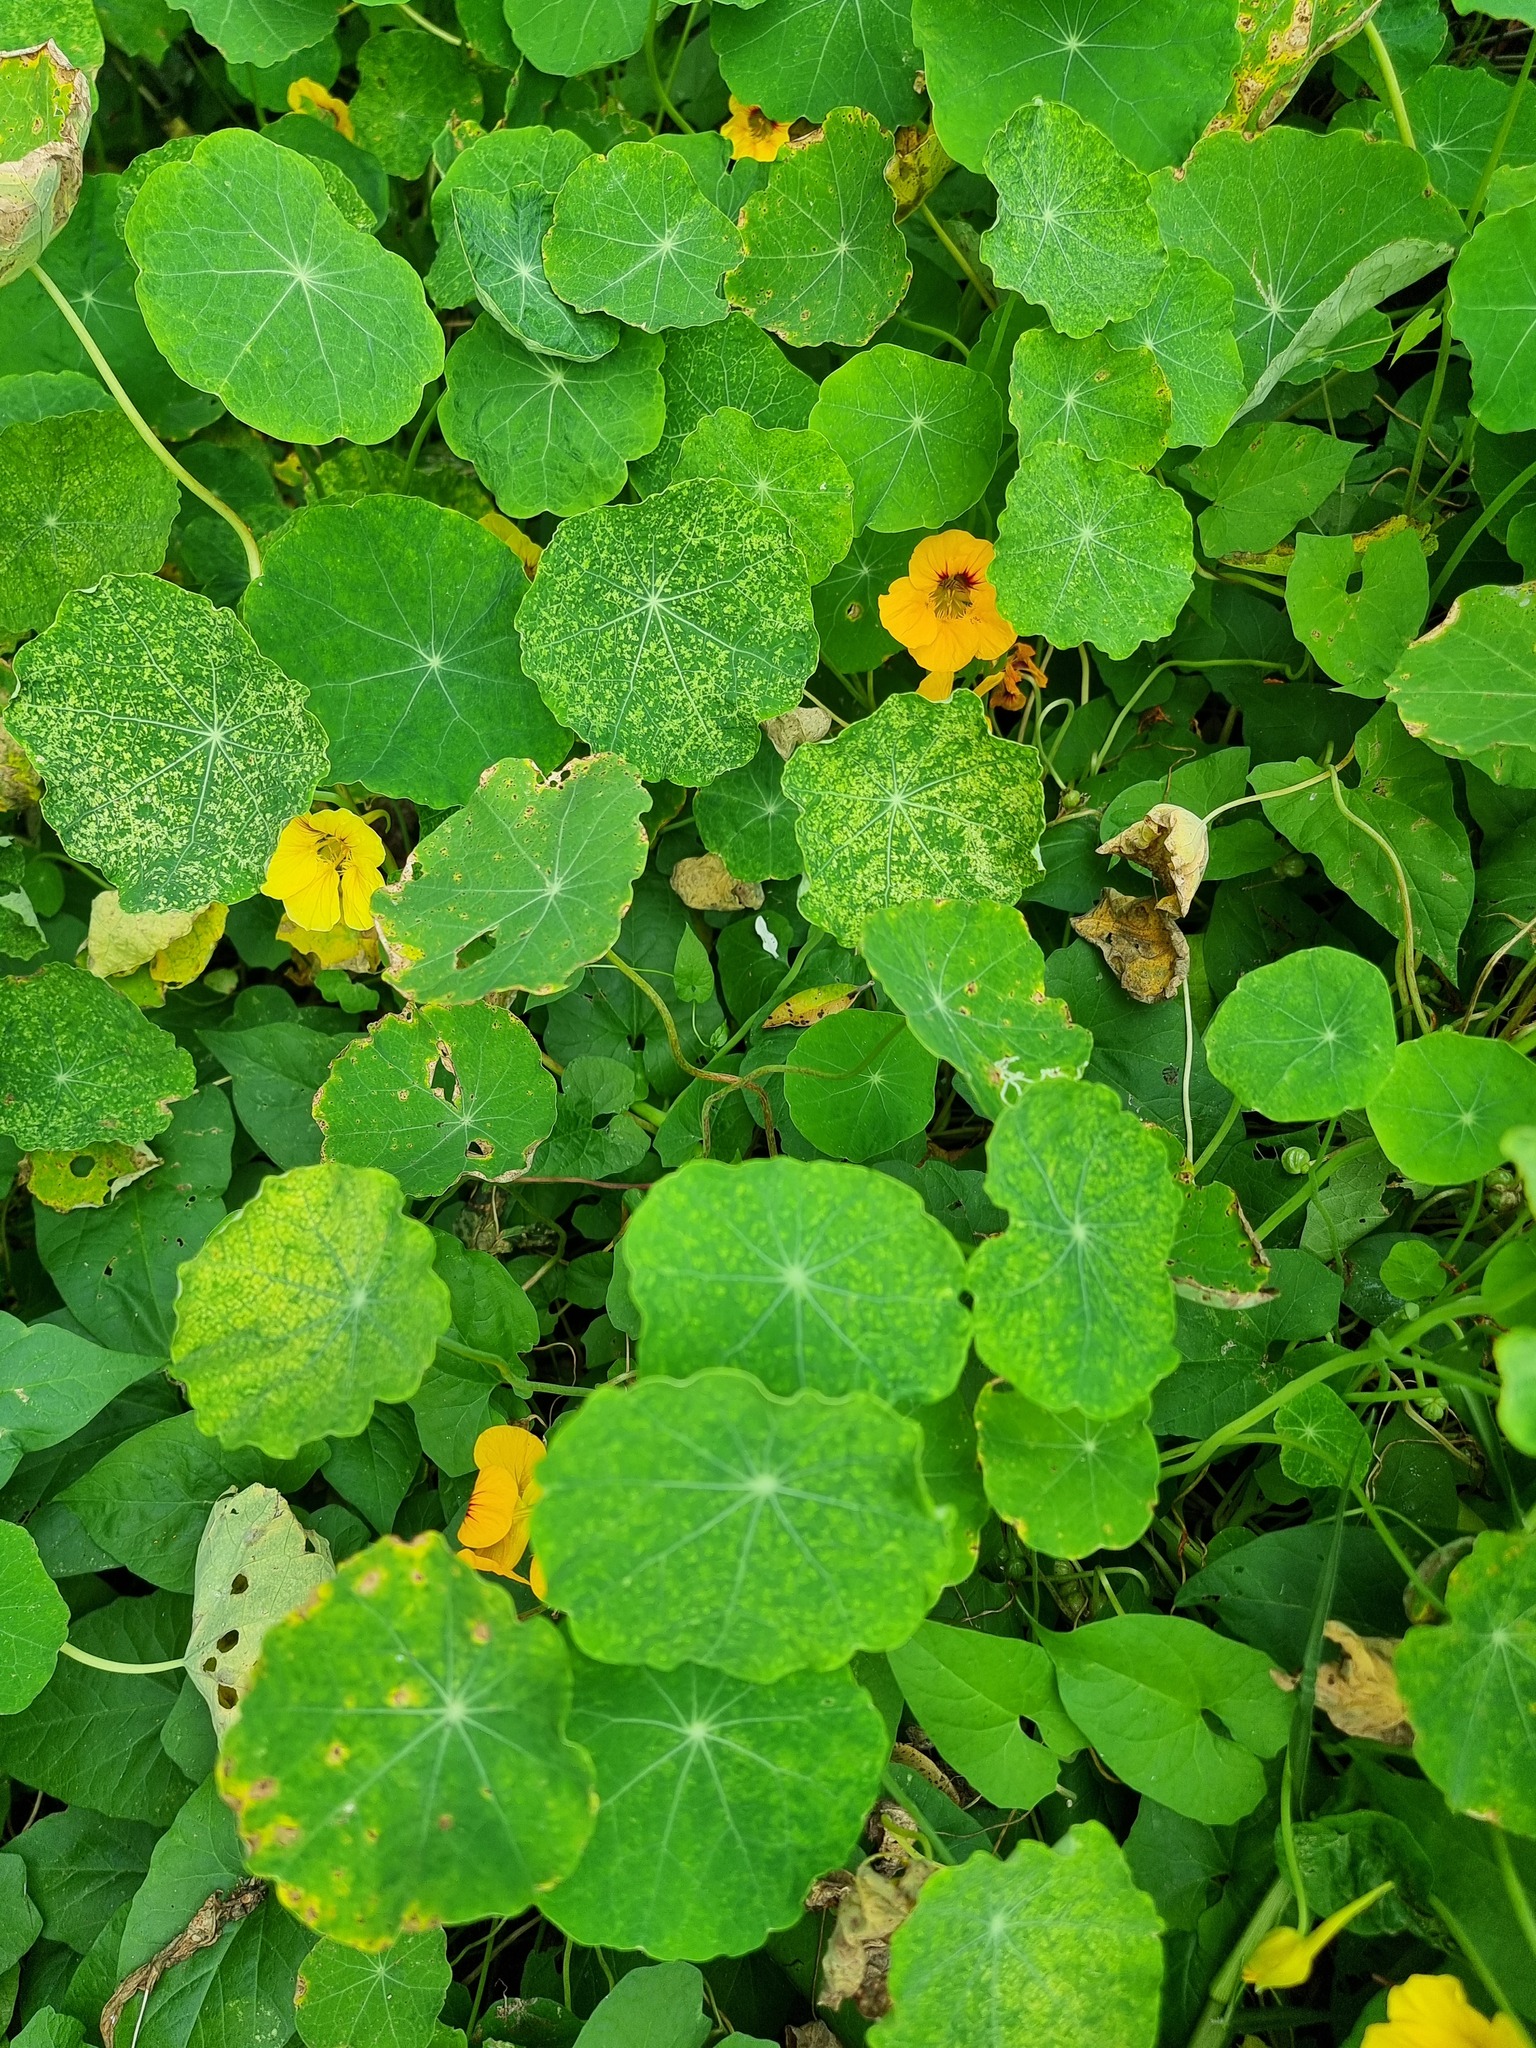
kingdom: Plantae
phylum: Tracheophyta
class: Magnoliopsida
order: Brassicales
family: Tropaeolaceae
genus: Tropaeolum
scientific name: Tropaeolum majus
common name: Nasturtium
